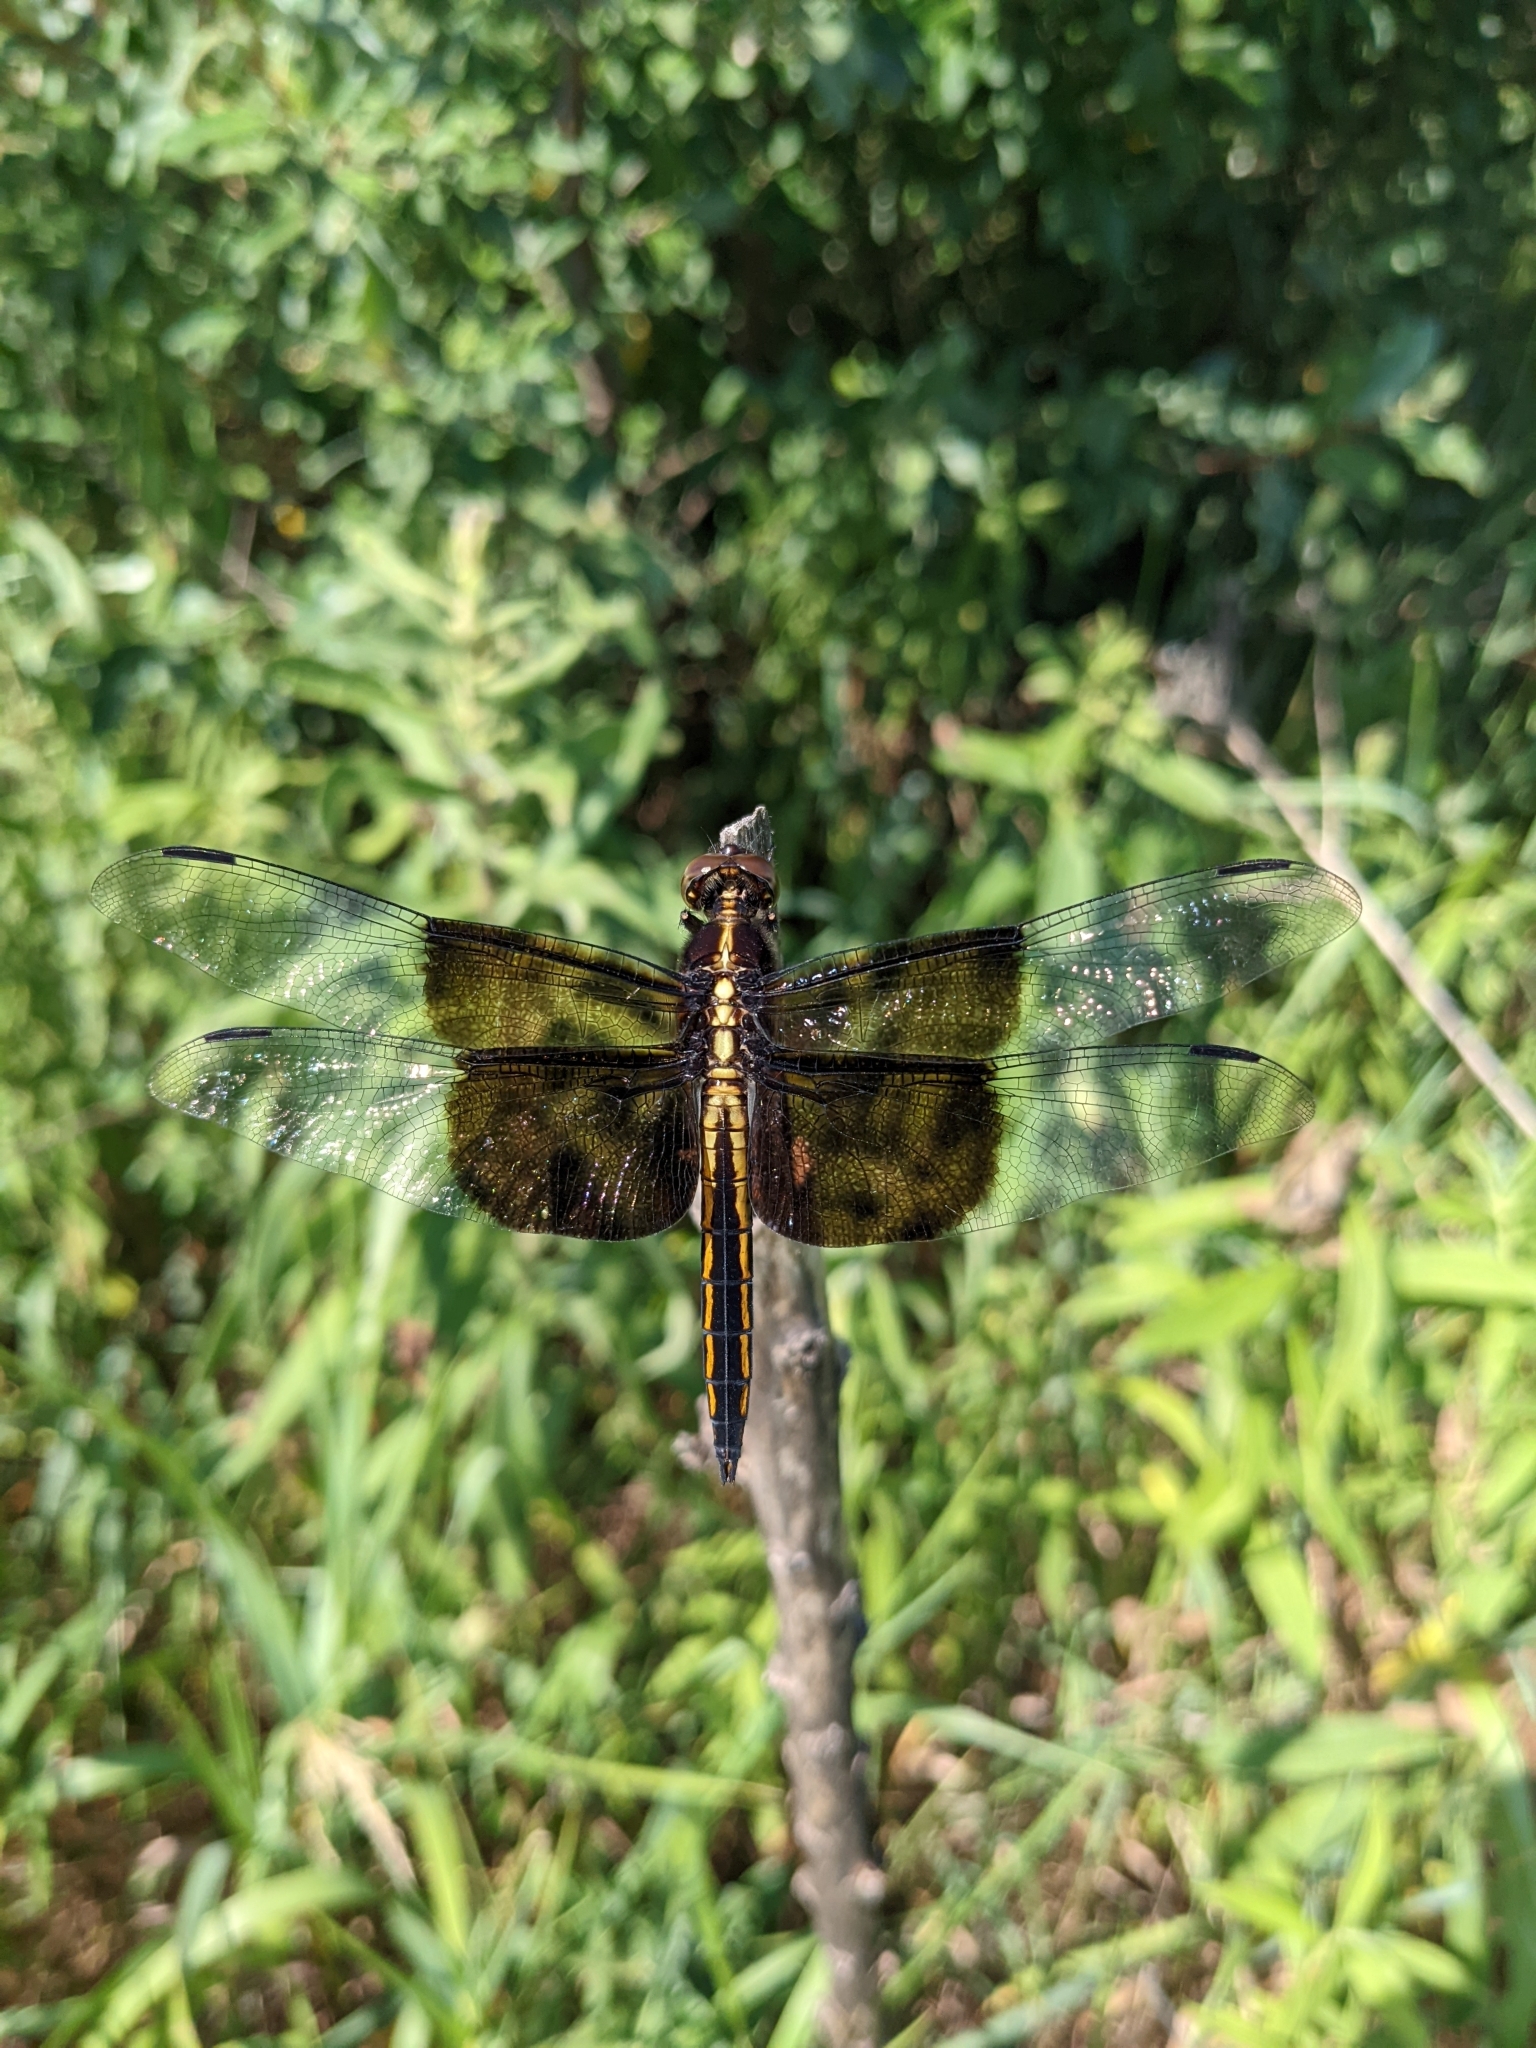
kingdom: Animalia
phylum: Arthropoda
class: Insecta
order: Odonata
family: Libellulidae
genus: Libellula
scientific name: Libellula luctuosa
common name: Widow skimmer
